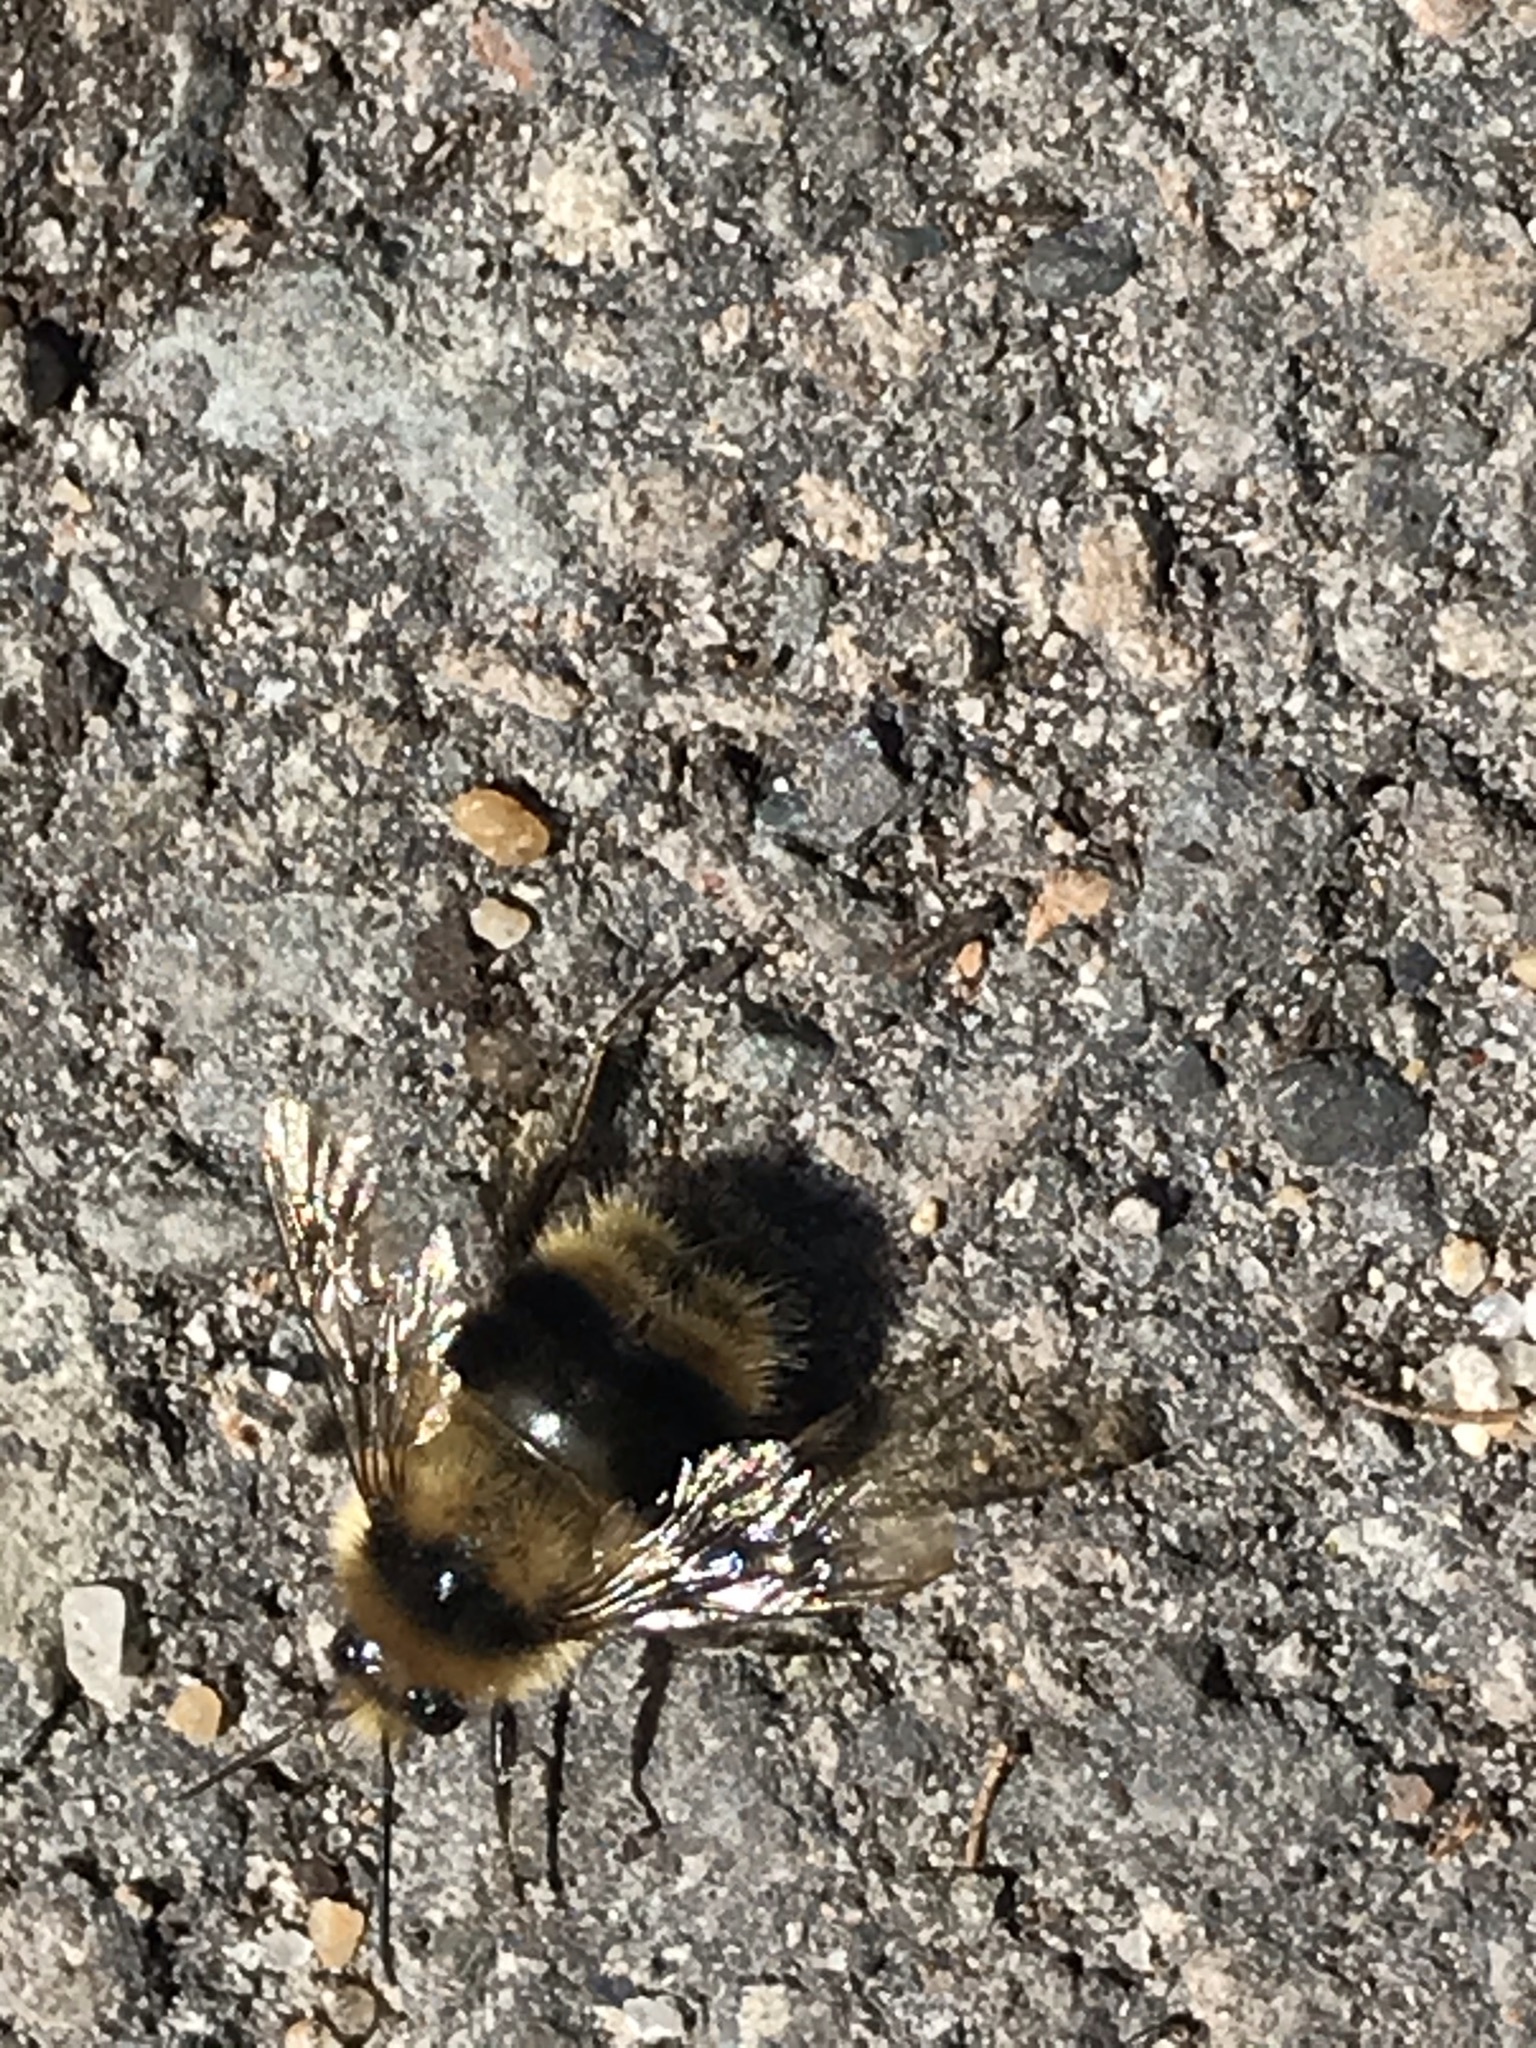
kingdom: Animalia
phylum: Arthropoda
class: Insecta
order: Hymenoptera
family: Apidae
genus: Bombus
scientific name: Bombus melanopygus
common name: Black tail bumble bee
